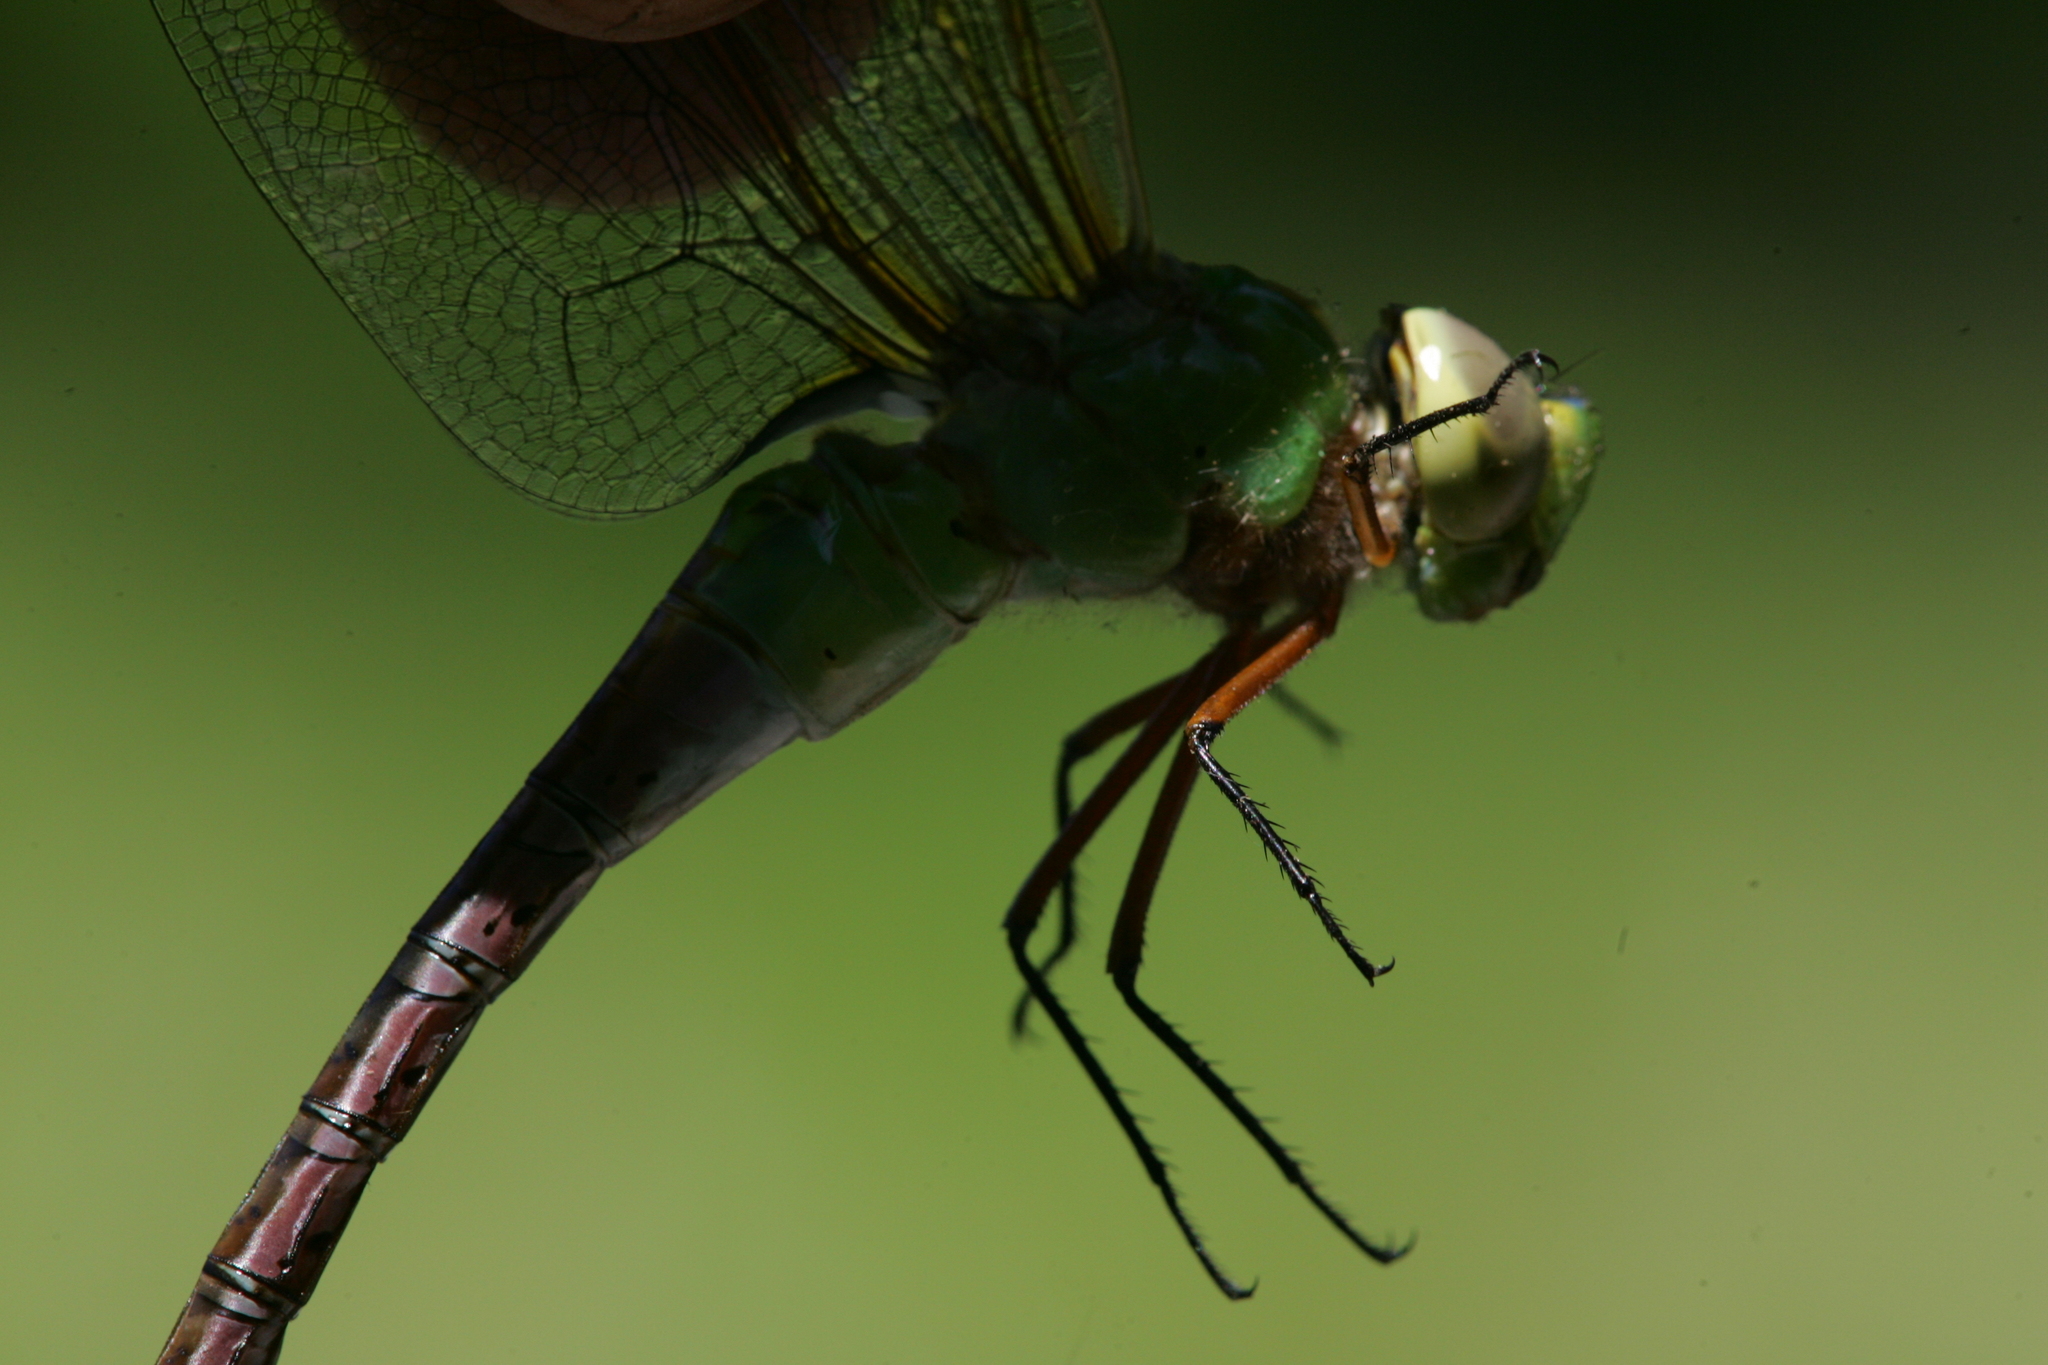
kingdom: Animalia
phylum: Arthropoda
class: Insecta
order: Odonata
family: Aeshnidae
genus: Anax
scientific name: Anax junius
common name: Common green darner
